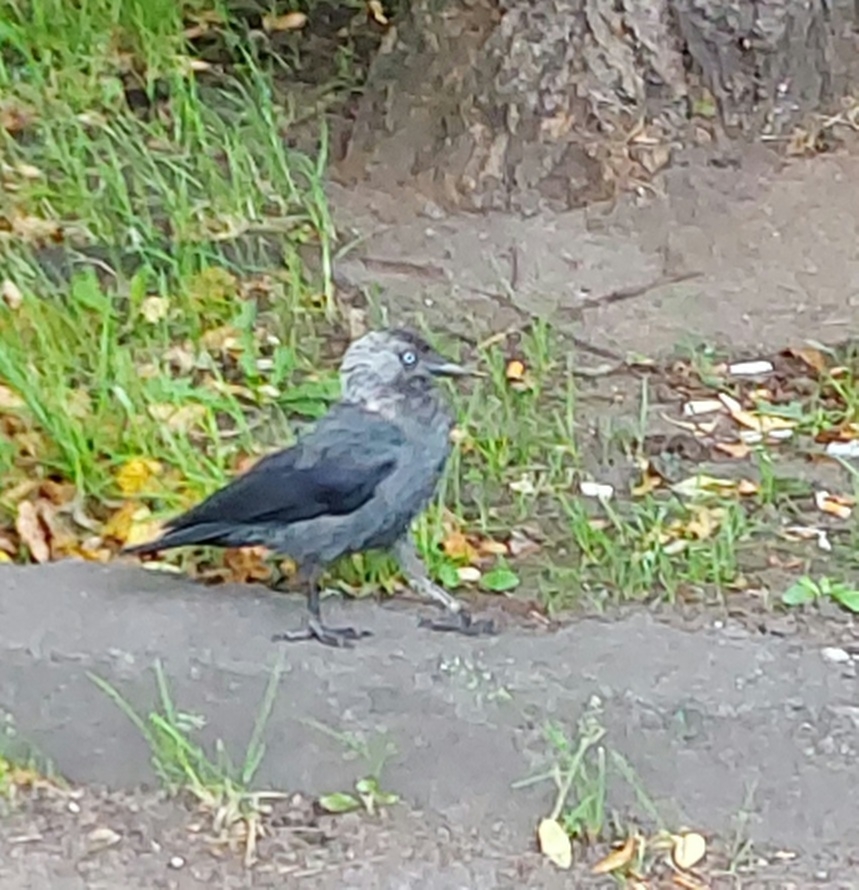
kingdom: Animalia
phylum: Chordata
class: Aves
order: Passeriformes
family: Corvidae
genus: Coloeus
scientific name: Coloeus monedula
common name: Western jackdaw
